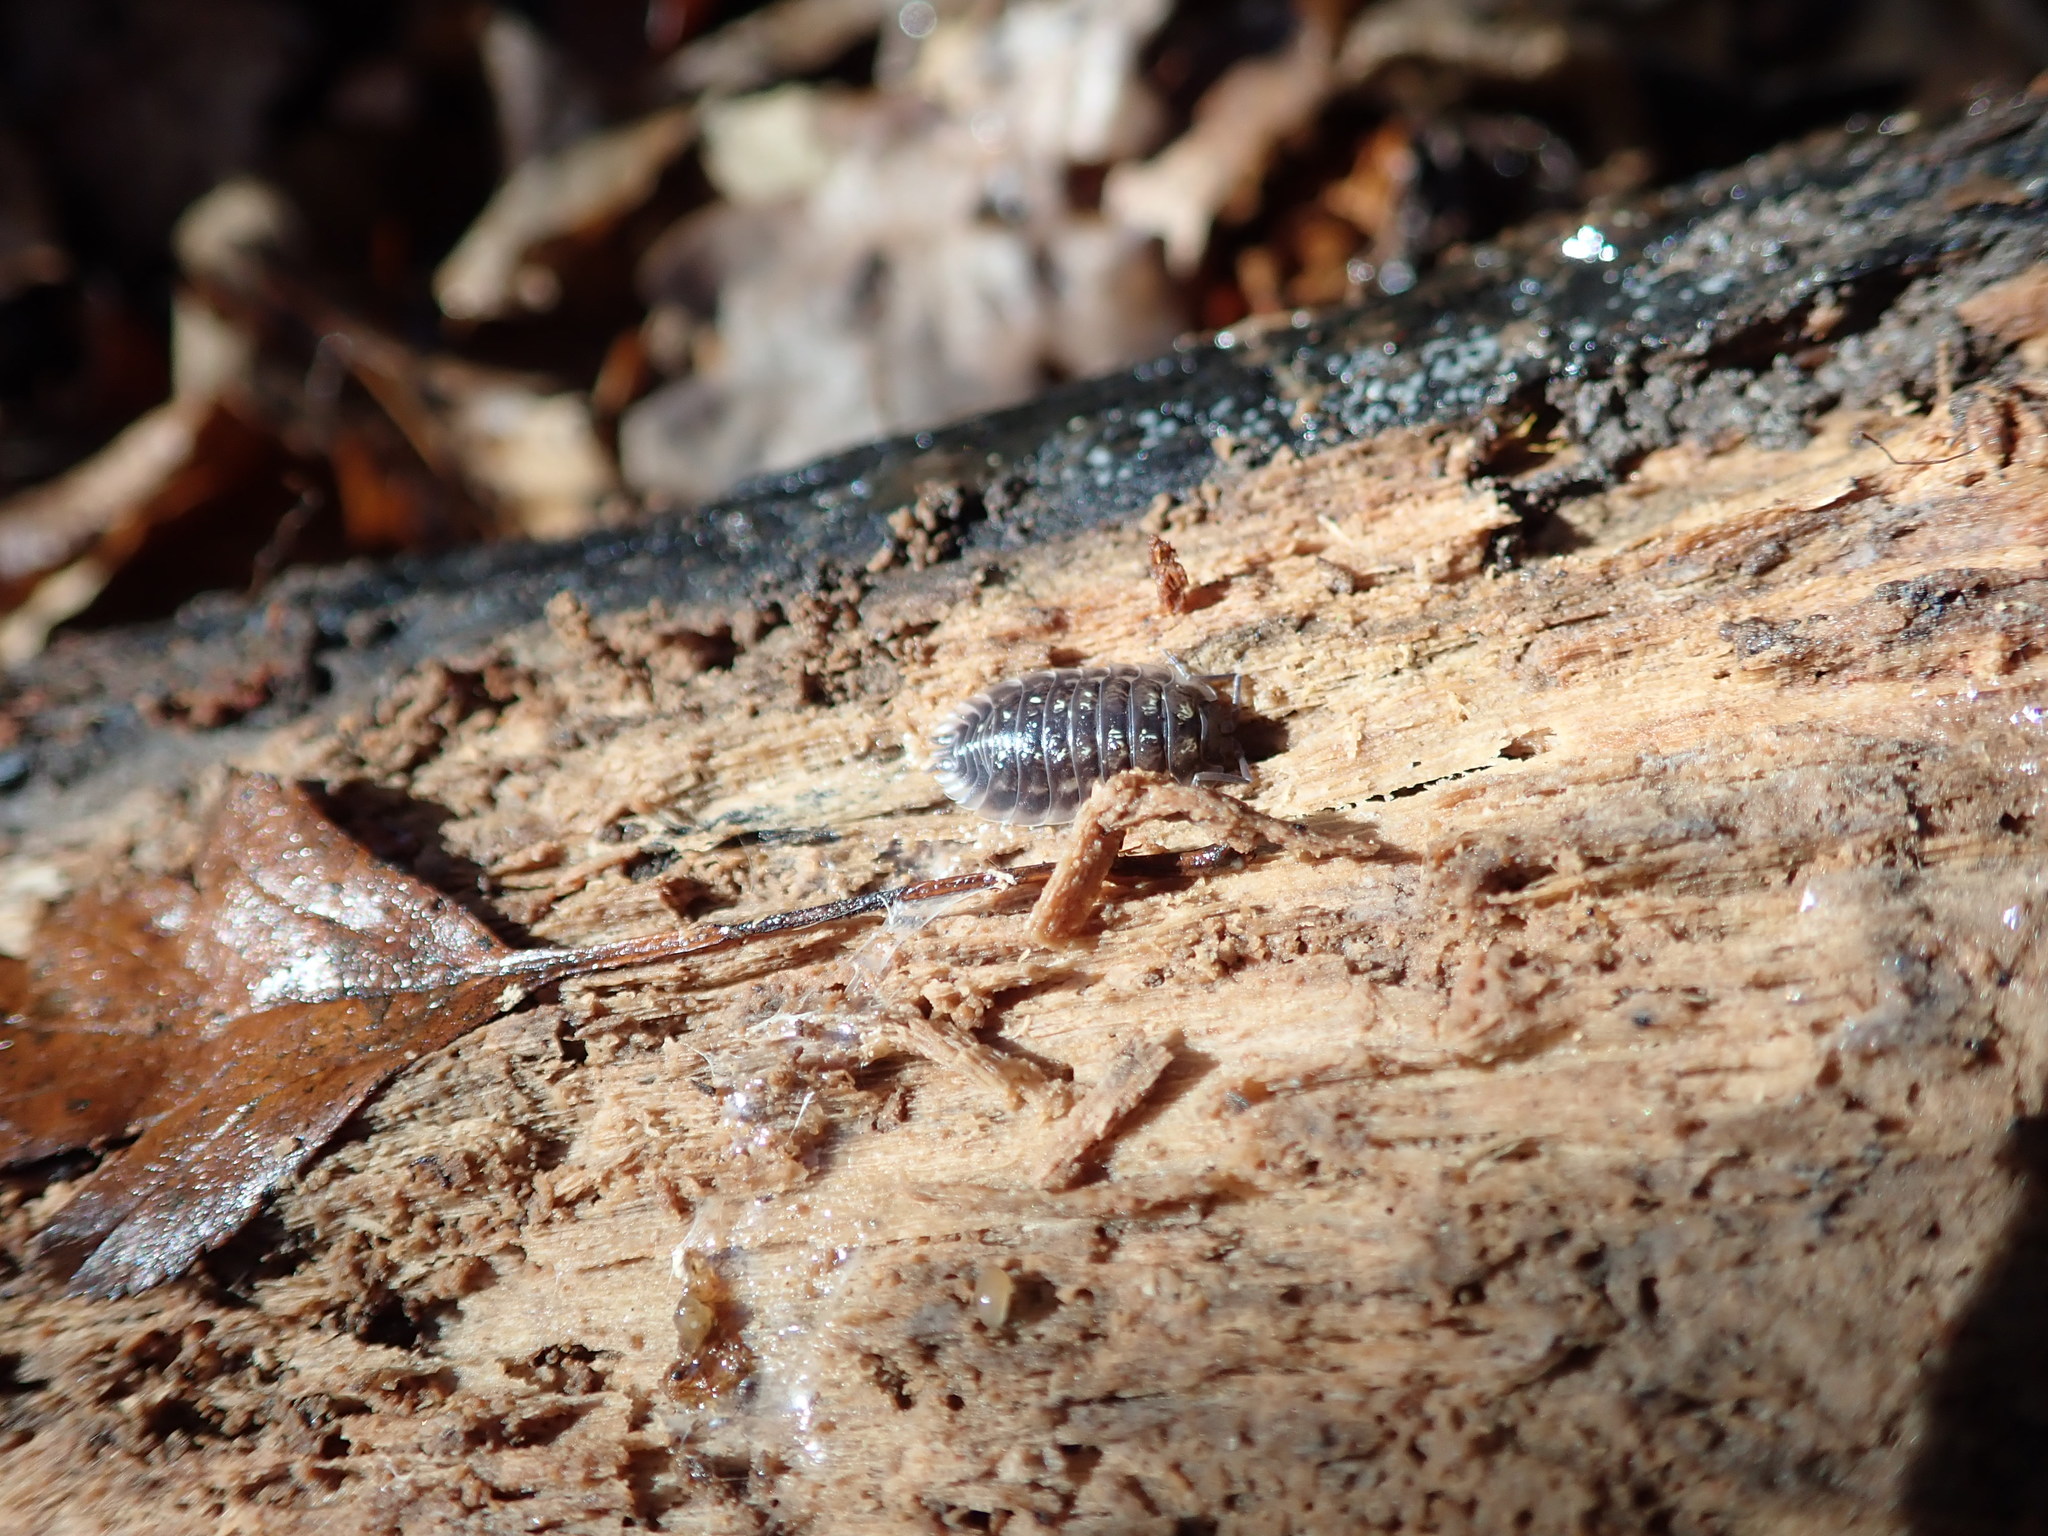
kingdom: Animalia
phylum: Arthropoda
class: Malacostraca
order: Isopoda
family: Oniscidae
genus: Oniscus
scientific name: Oniscus asellus
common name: Common shiny woodlouse
